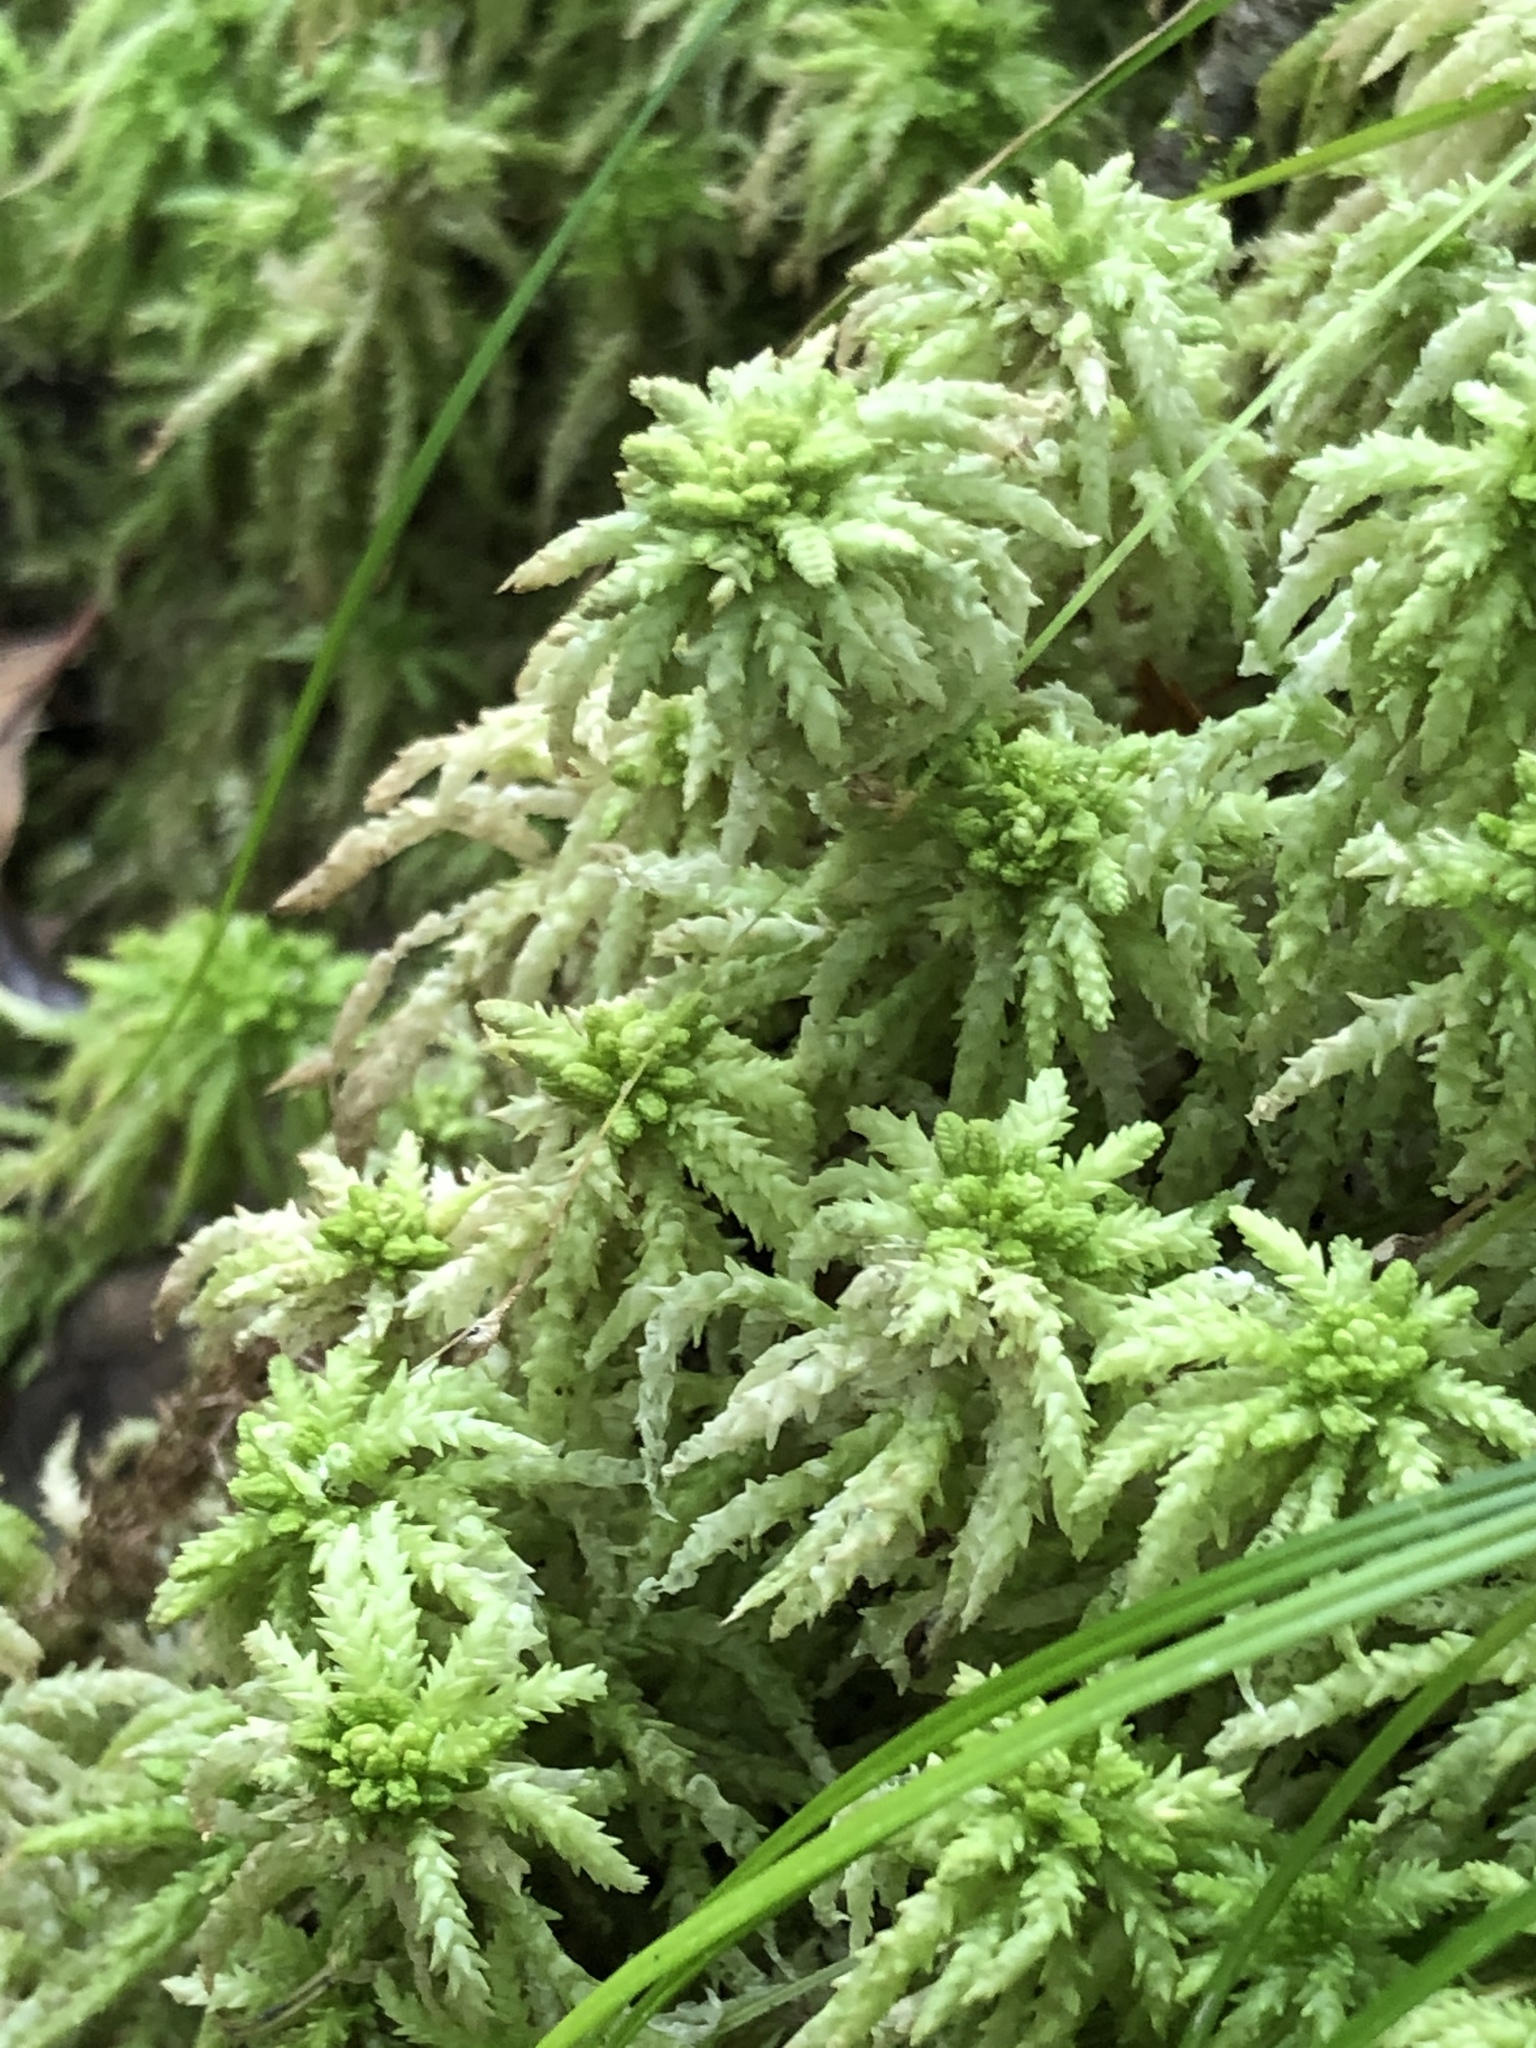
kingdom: Plantae
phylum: Bryophyta
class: Sphagnopsida
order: Sphagnales
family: Sphagnaceae
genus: Sphagnum
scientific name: Sphagnum
